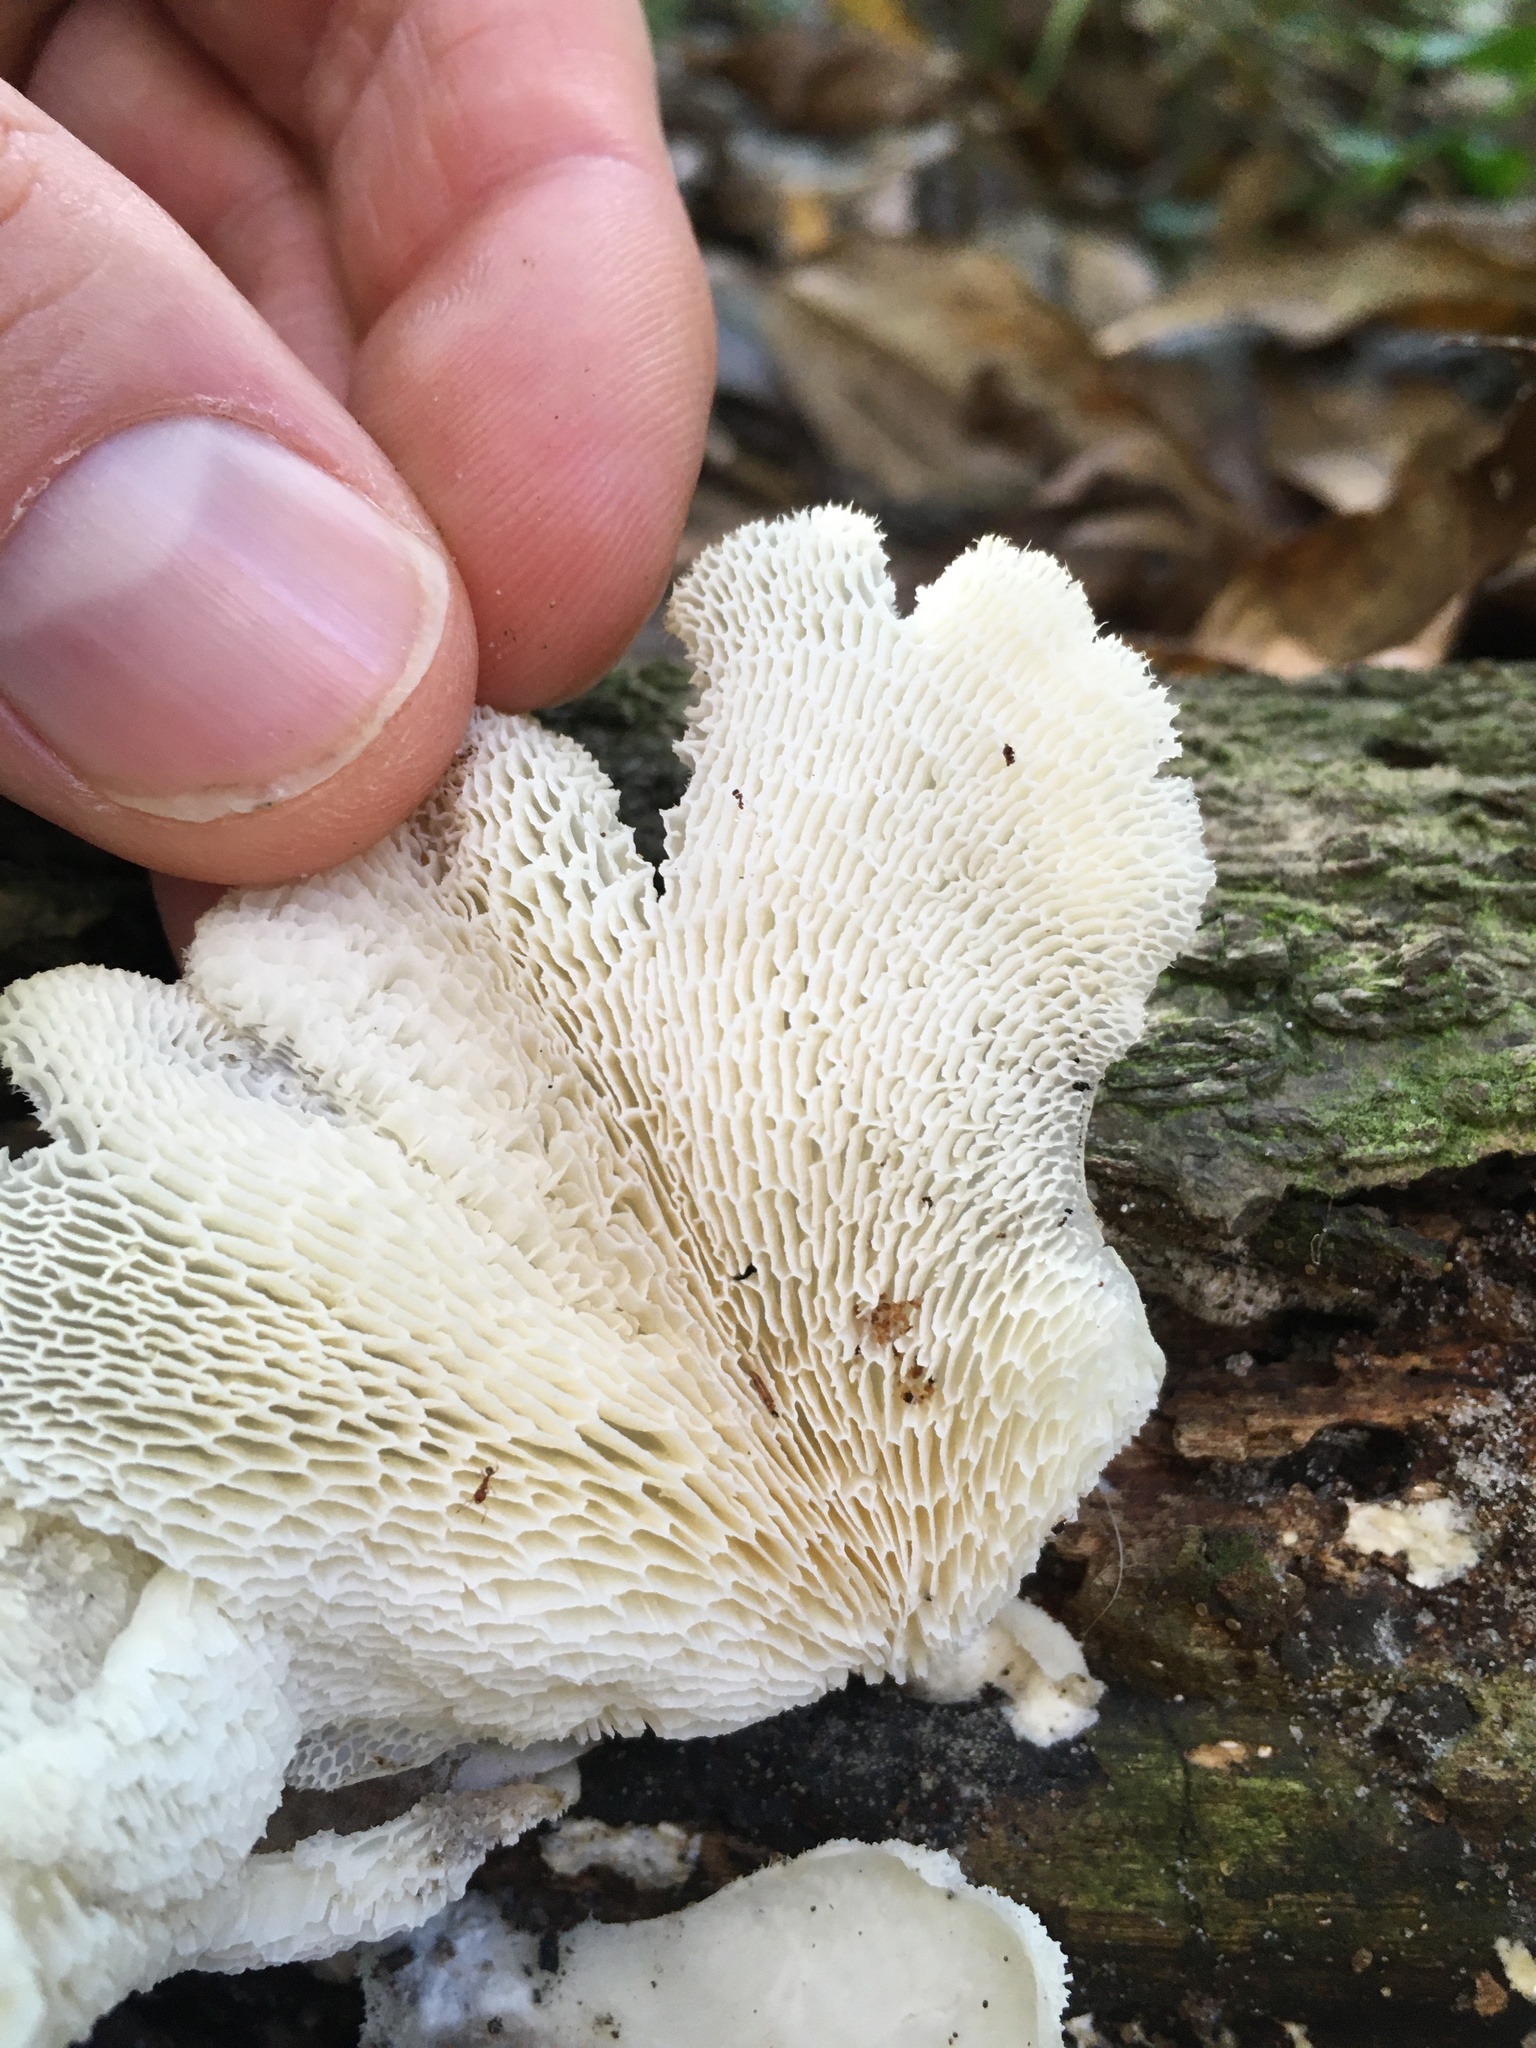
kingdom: Fungi
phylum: Basidiomycota
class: Agaricomycetes
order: Polyporales
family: Polyporaceae
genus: Favolus
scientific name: Favolus tenuiculus
